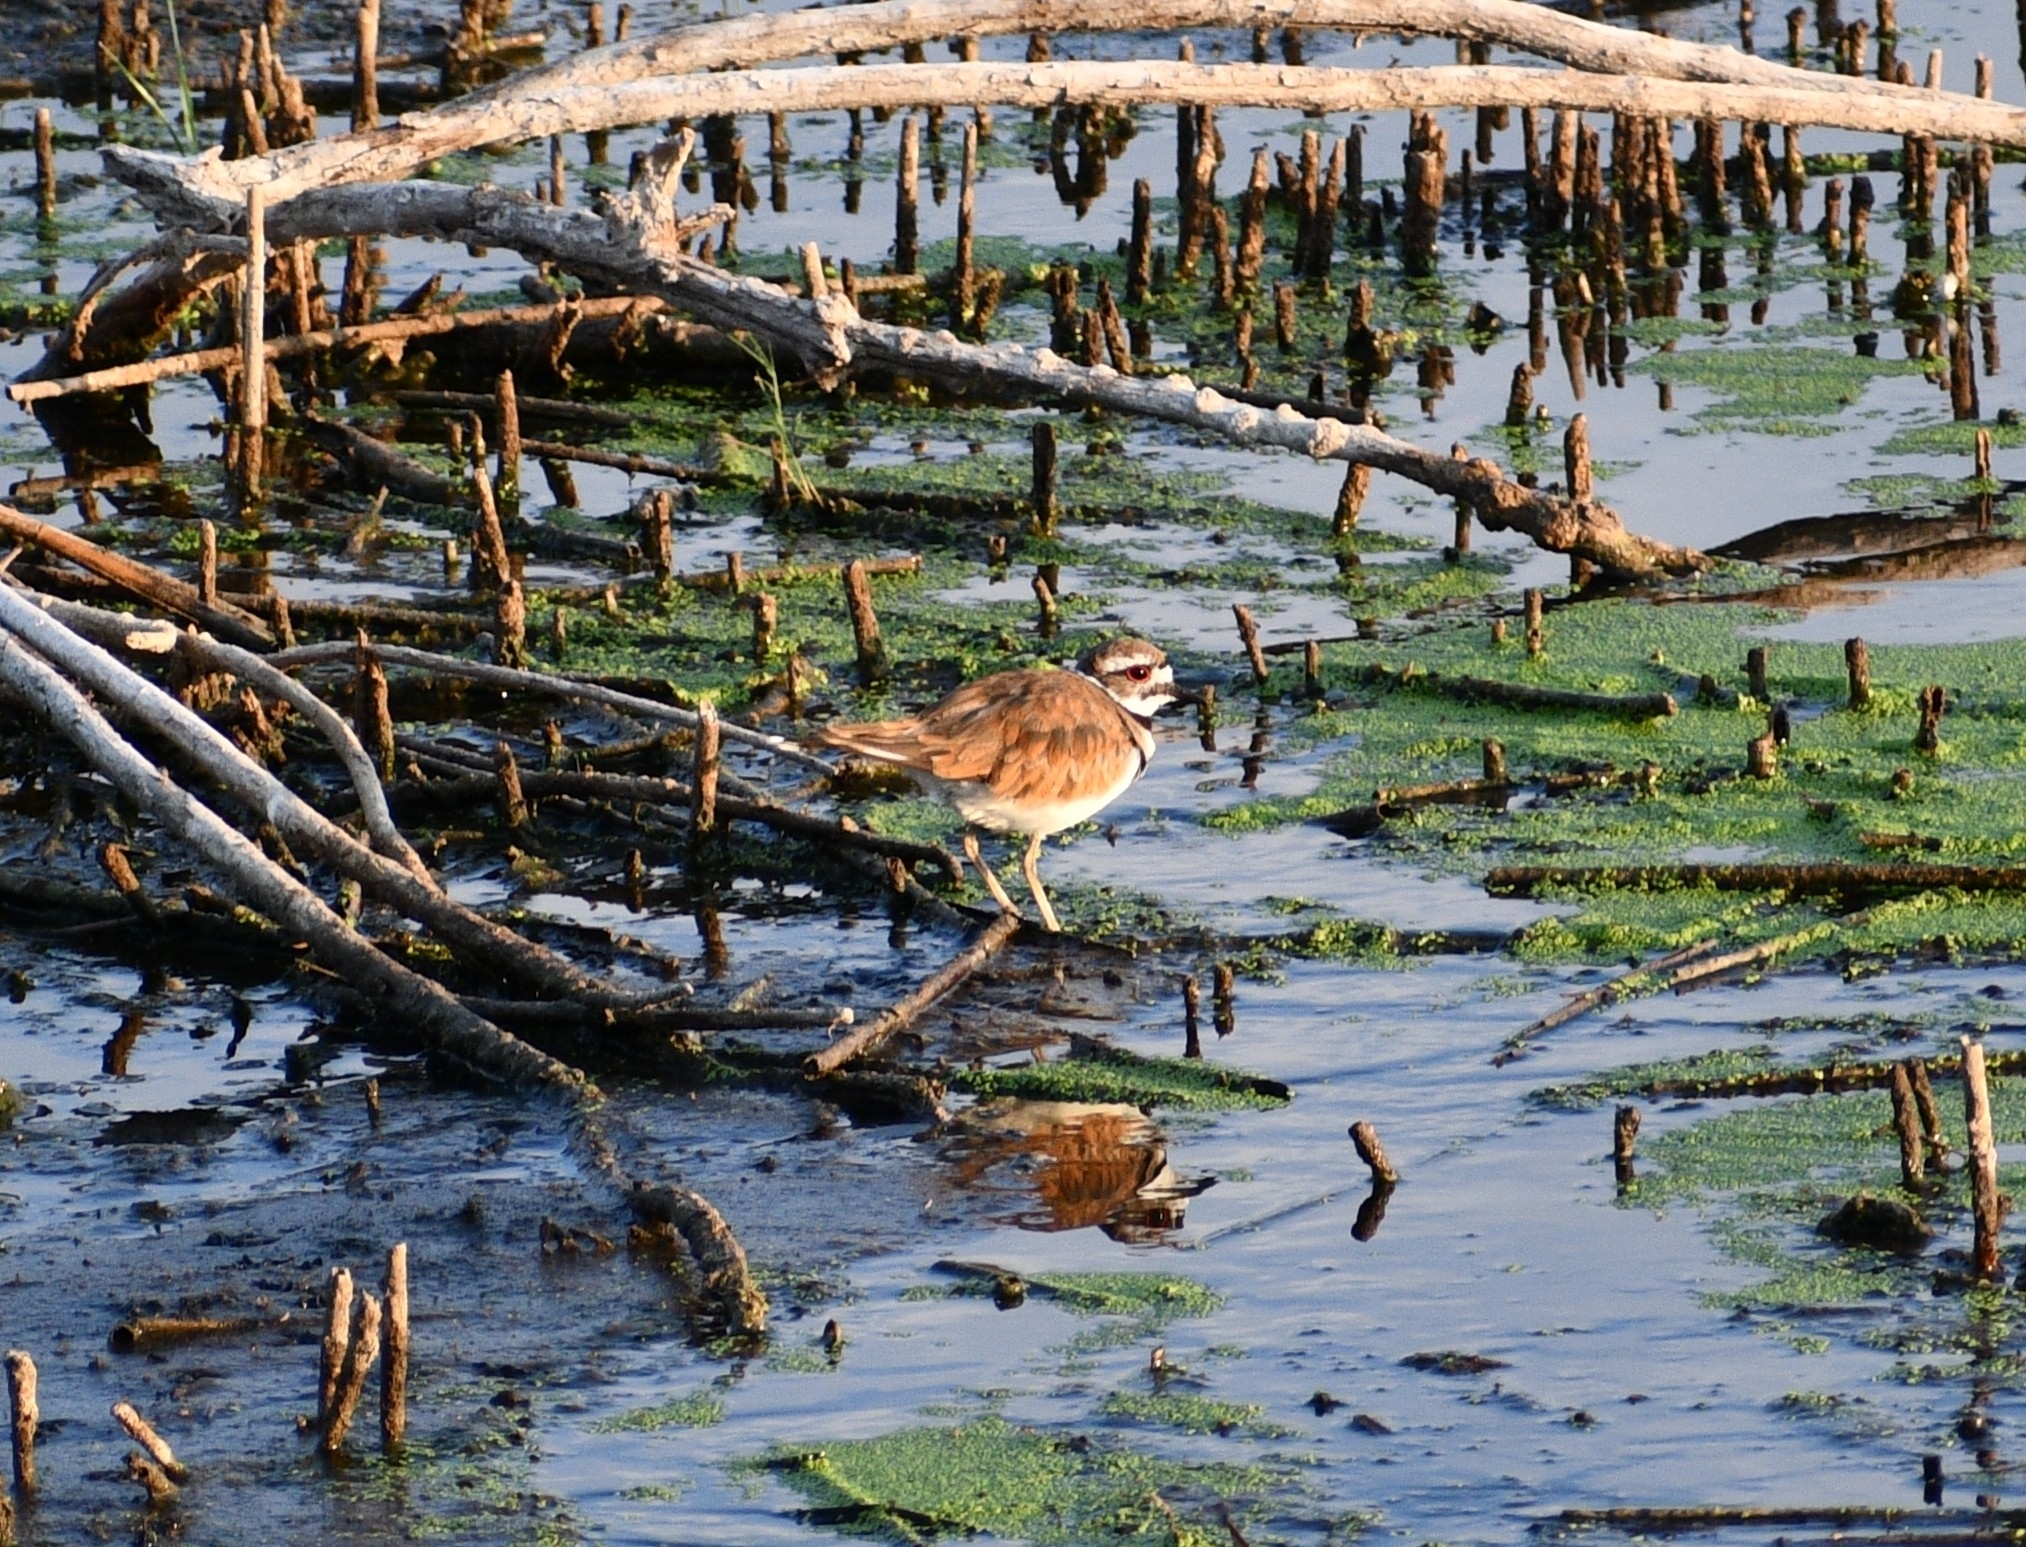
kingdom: Animalia
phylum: Chordata
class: Aves
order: Charadriiformes
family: Charadriidae
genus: Charadrius
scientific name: Charadrius vociferus
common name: Killdeer
